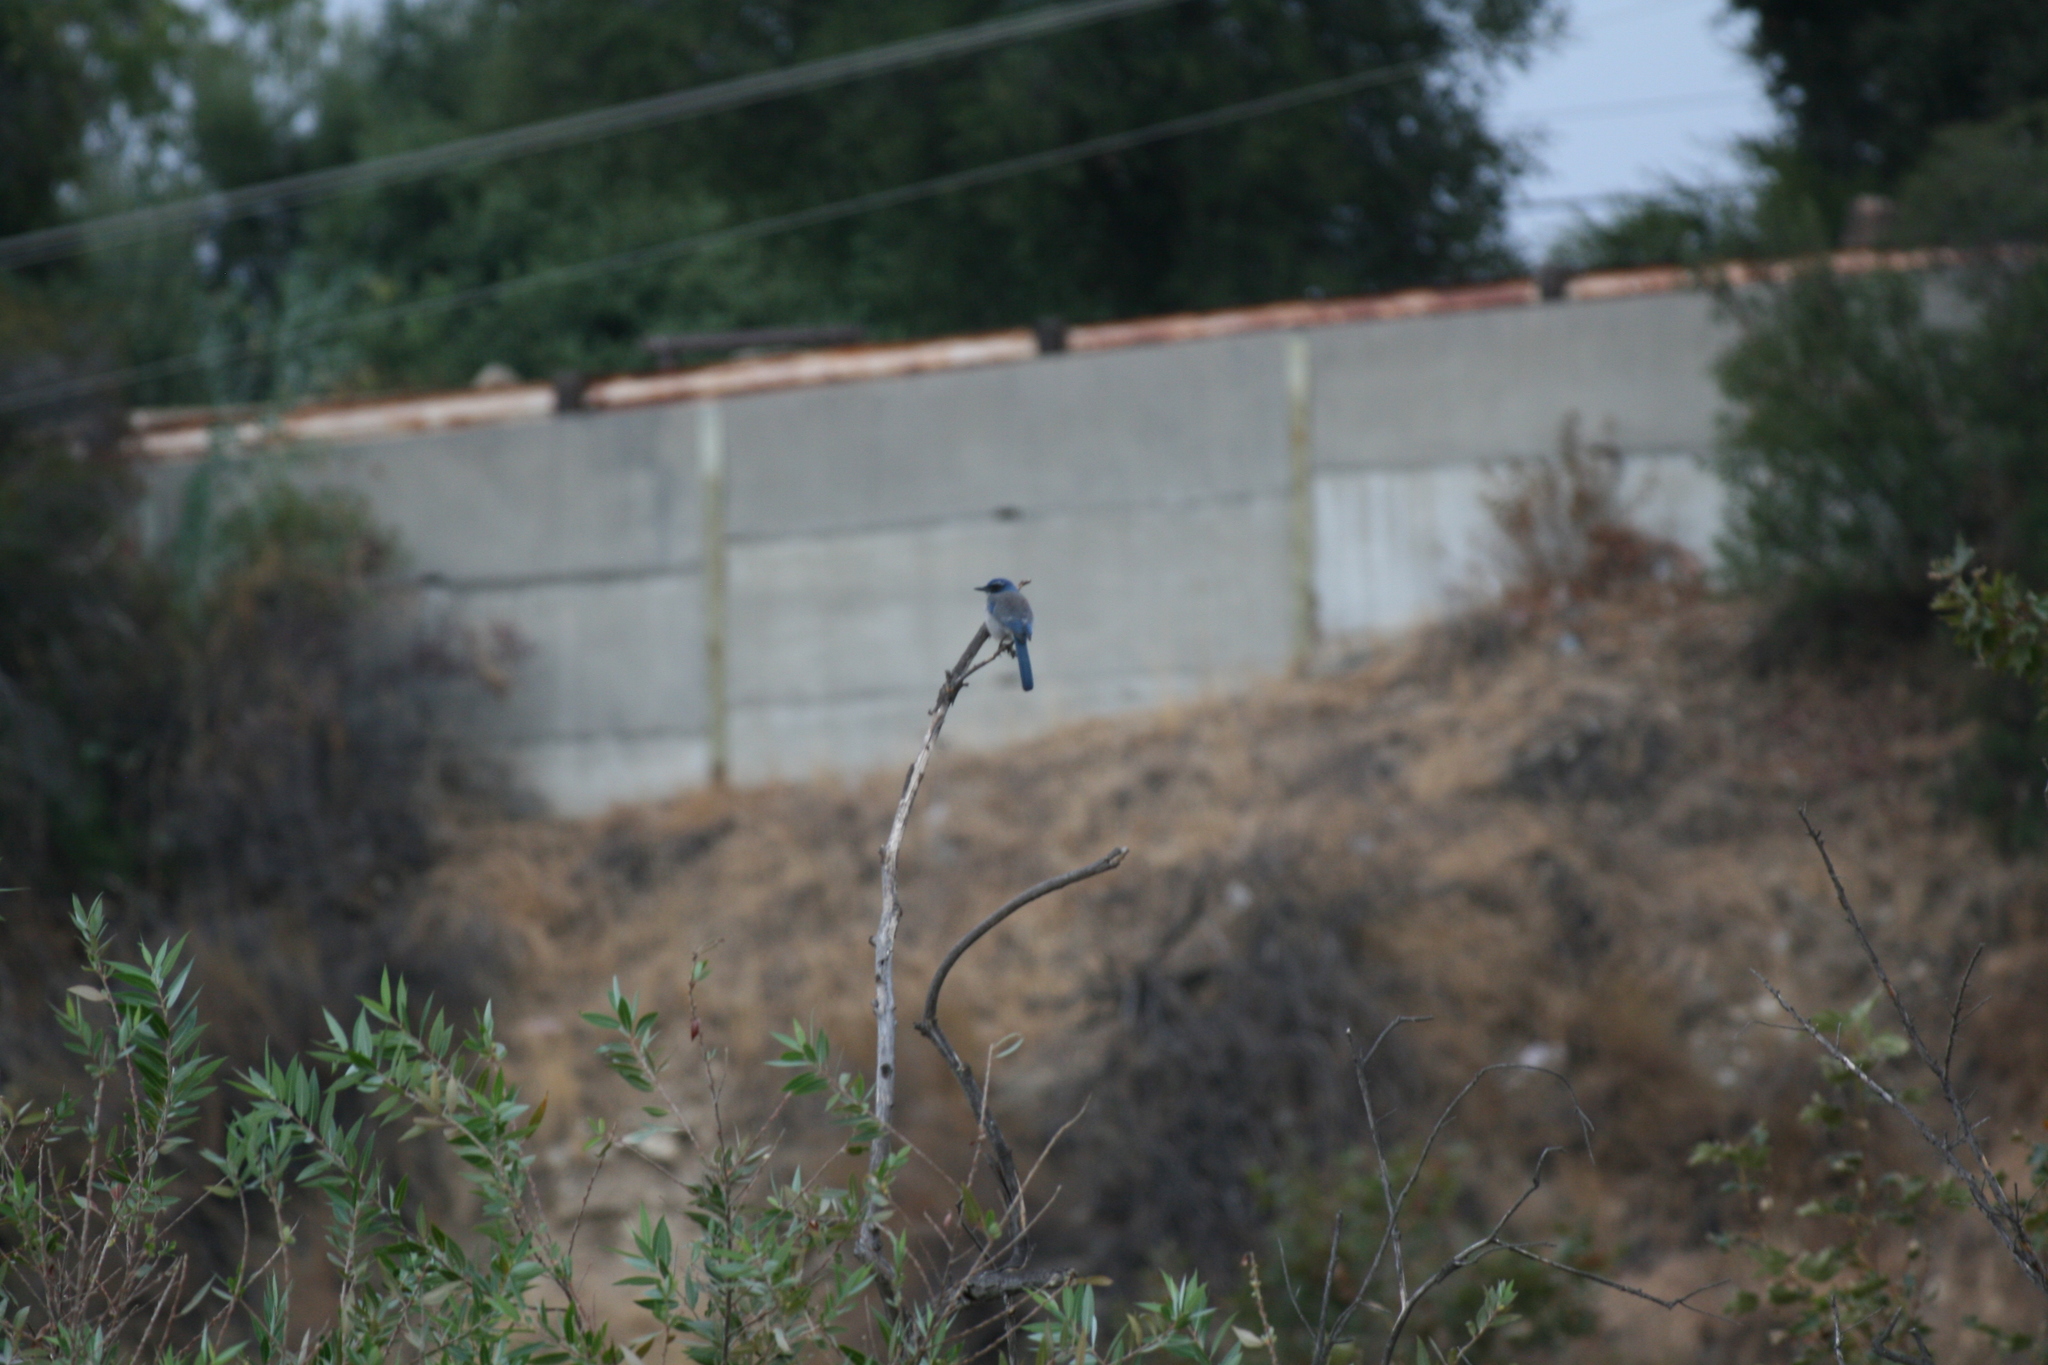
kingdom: Animalia
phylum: Chordata
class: Aves
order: Passeriformes
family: Corvidae
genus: Aphelocoma
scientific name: Aphelocoma californica
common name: California scrub-jay
